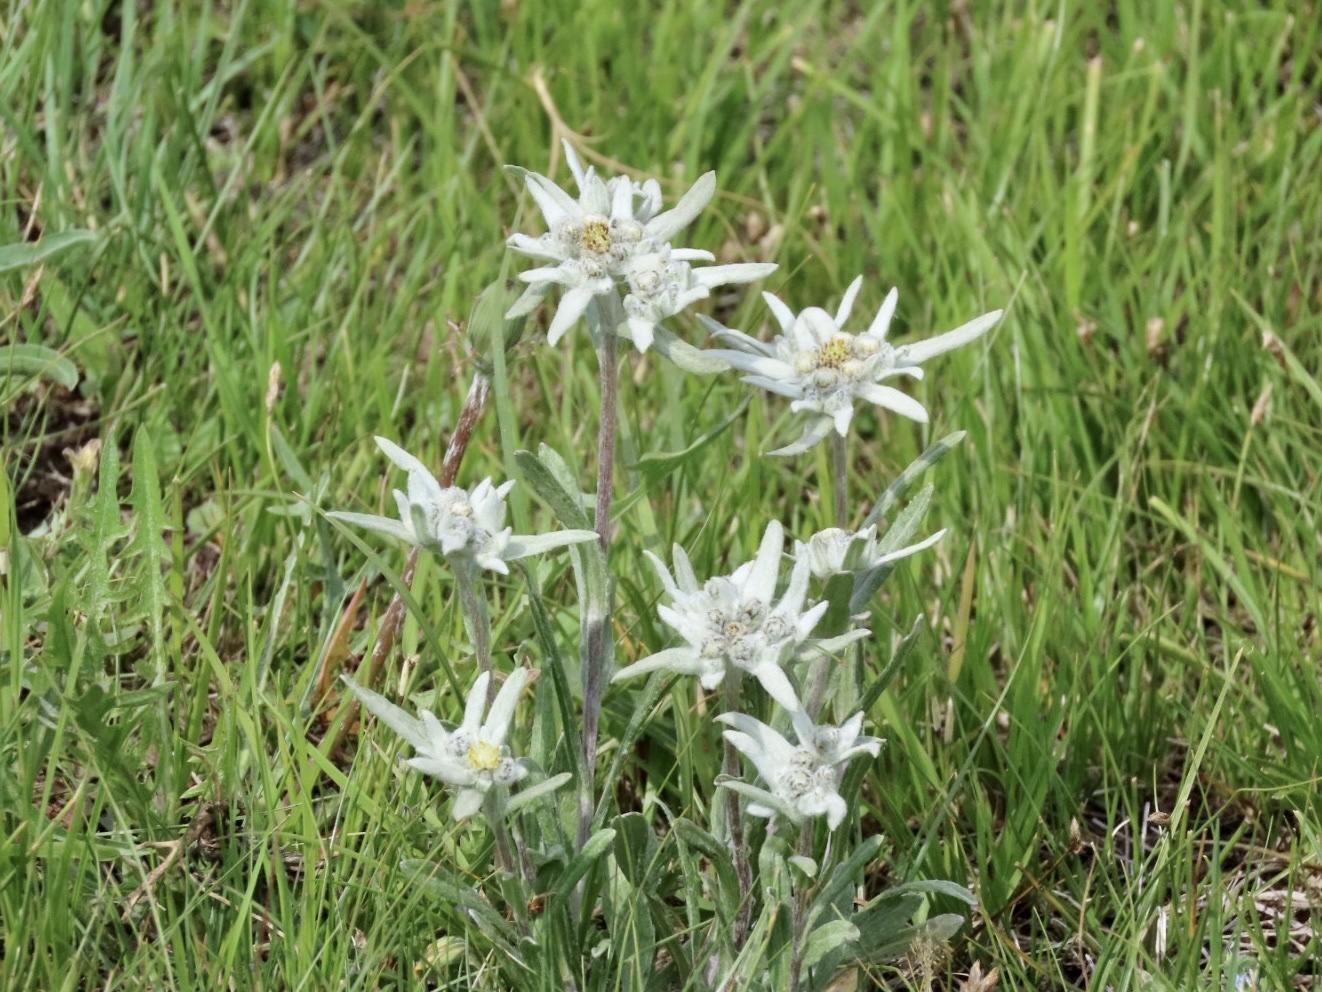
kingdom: Plantae
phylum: Tracheophyta
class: Magnoliopsida
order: Asterales
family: Asteraceae
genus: Leontopodium
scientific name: Leontopodium leontopodioides
